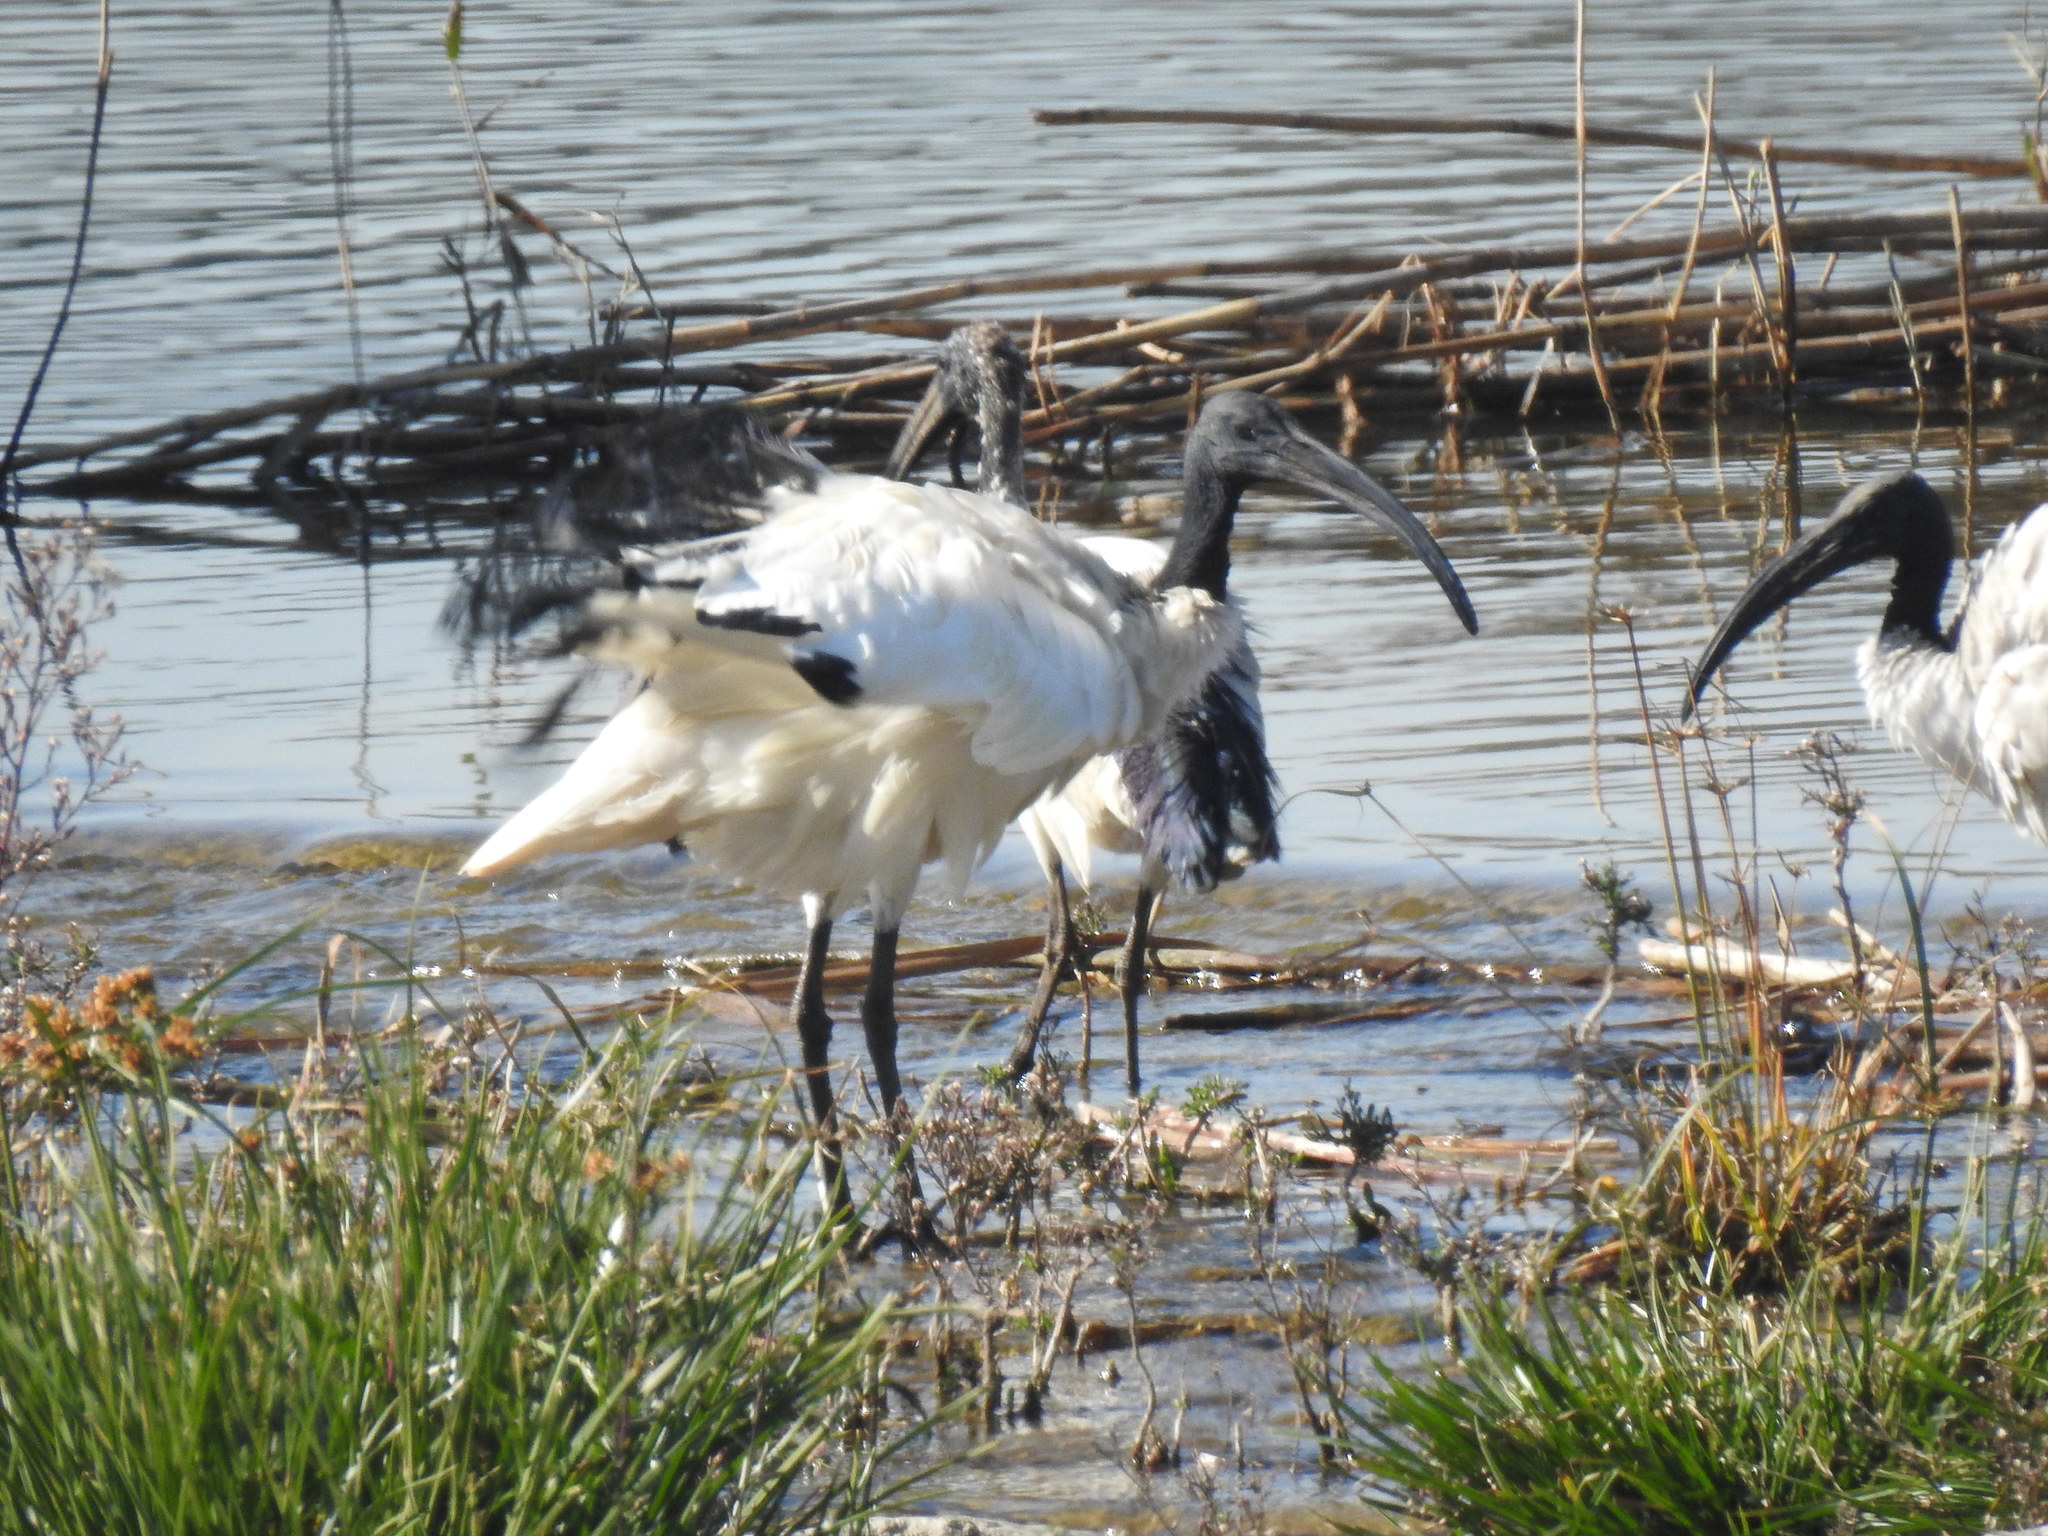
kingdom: Animalia
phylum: Chordata
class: Aves
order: Pelecaniformes
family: Threskiornithidae
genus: Threskiornis
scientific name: Threskiornis aethiopicus
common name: Sacred ibis
